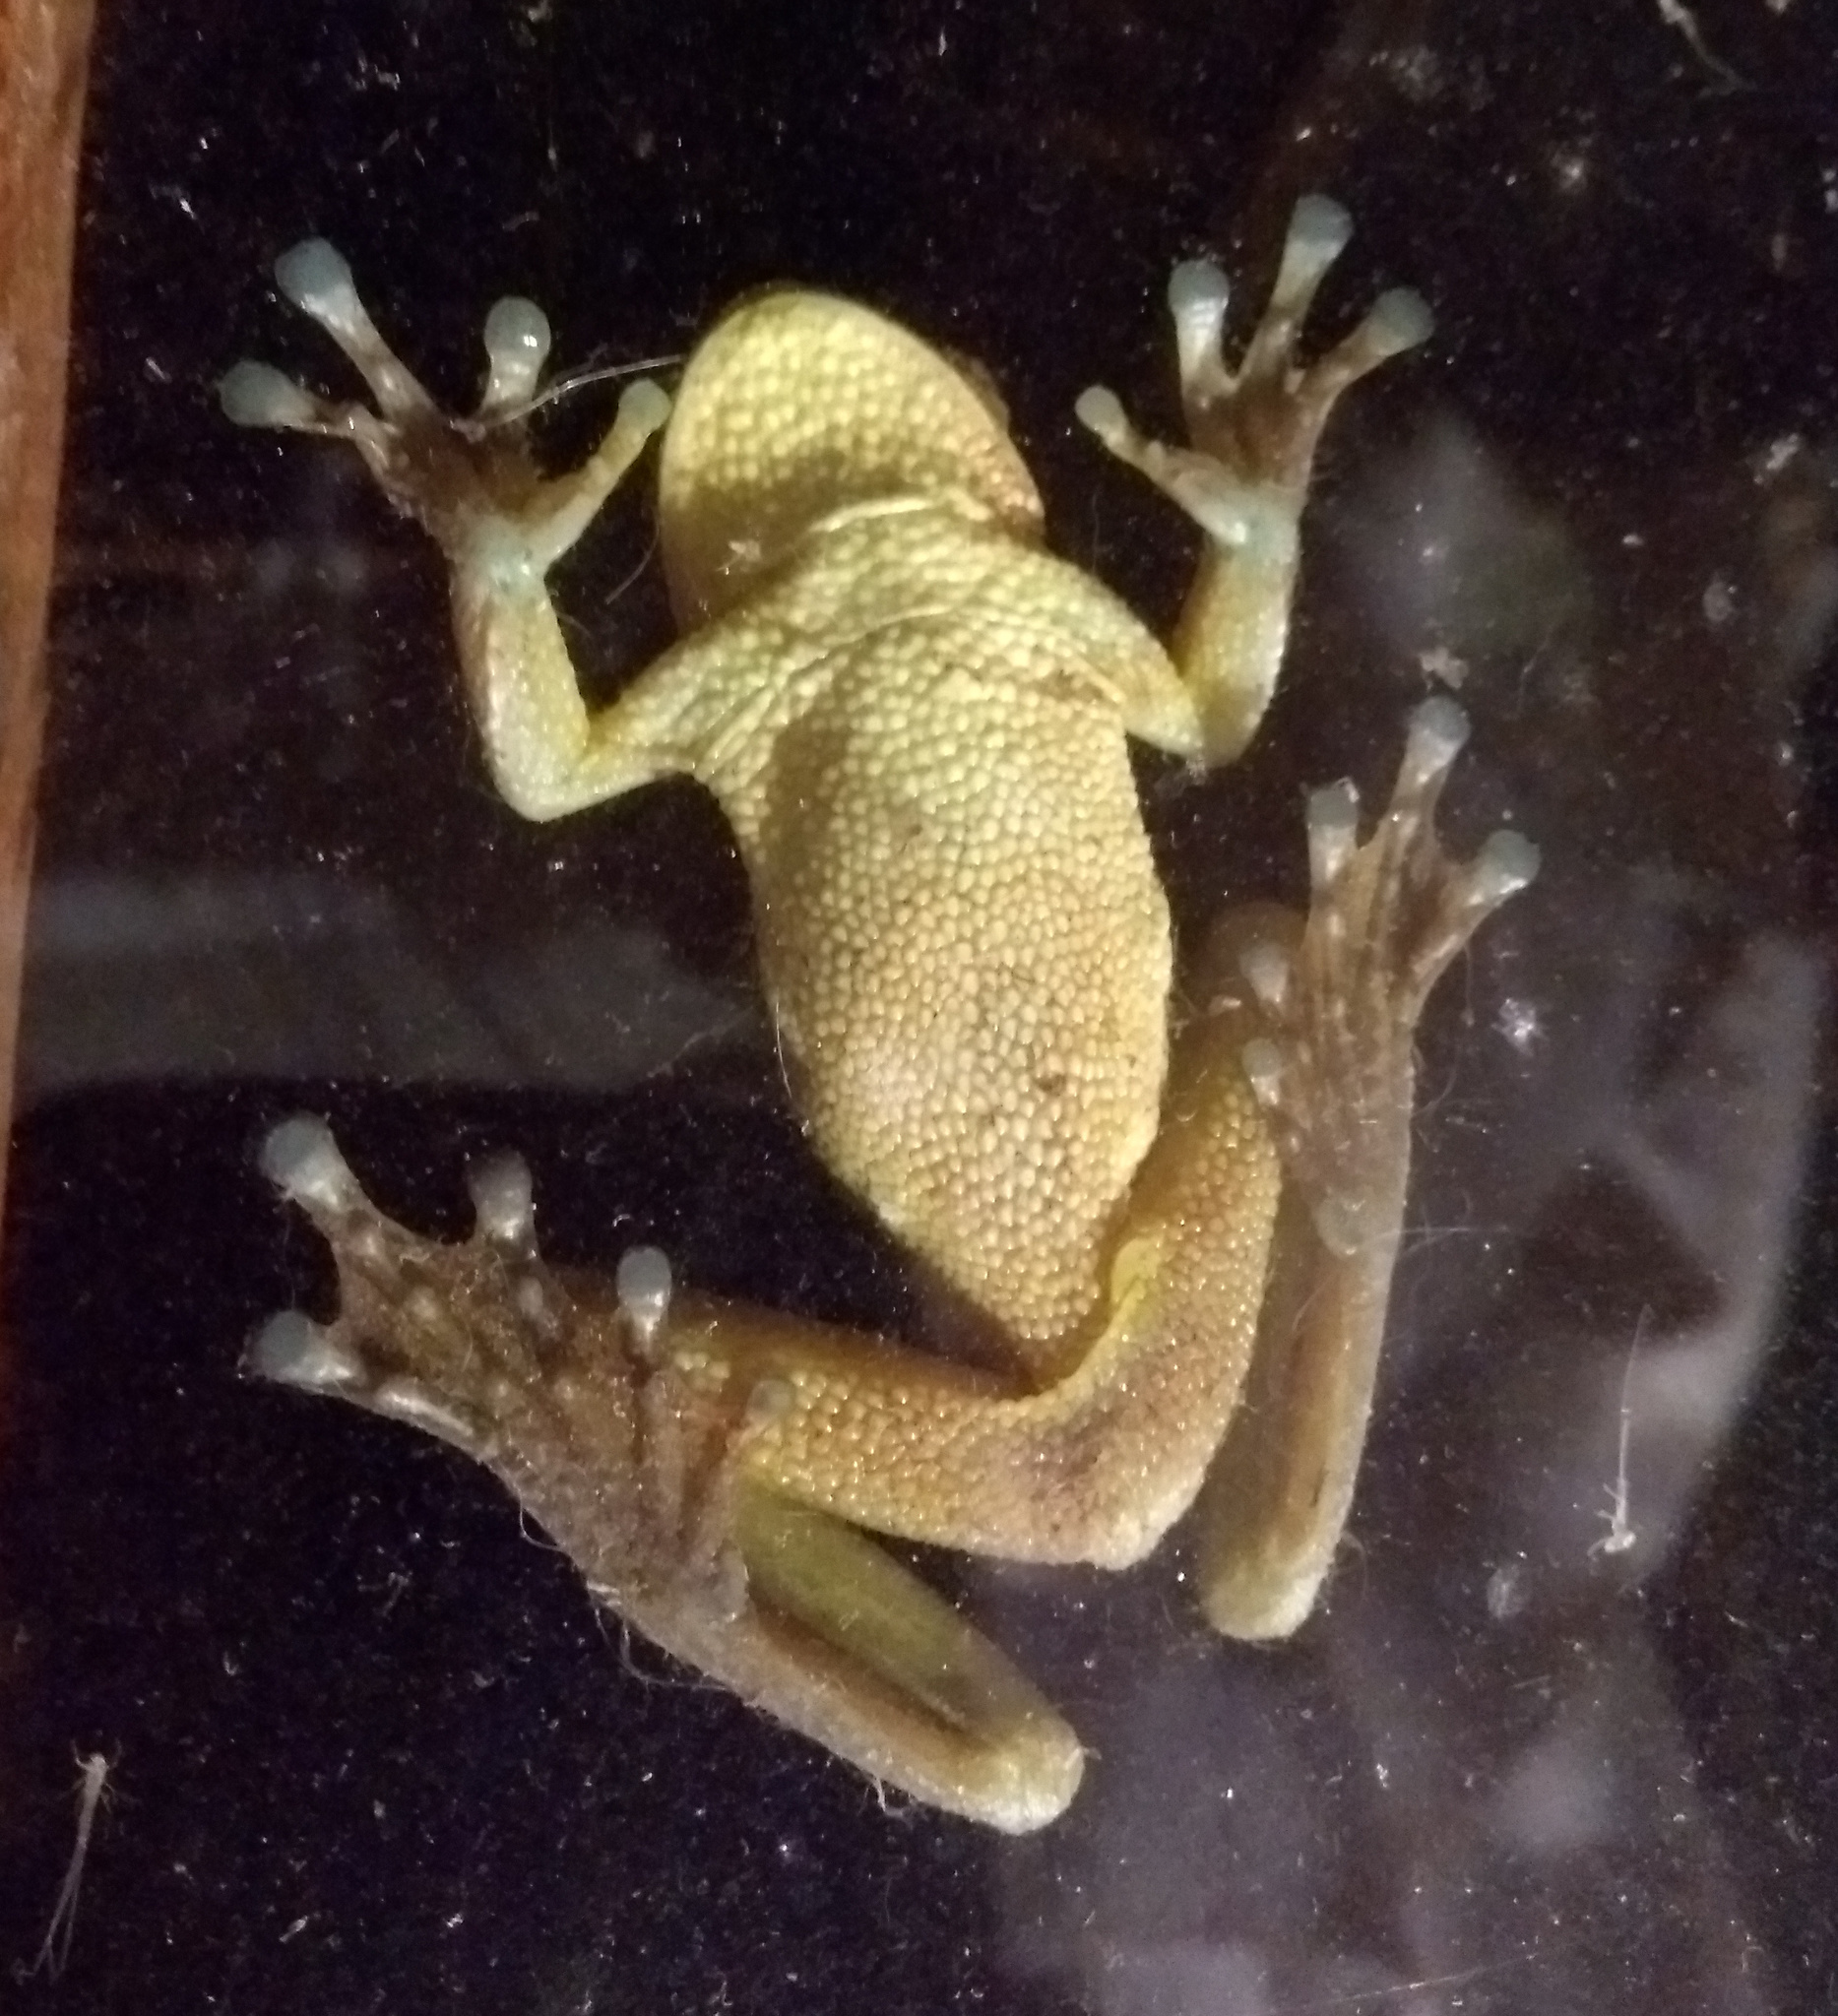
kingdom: Animalia
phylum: Chordata
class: Amphibia
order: Anura
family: Hylidae
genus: Trachycephalus
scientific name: Trachycephalus mesophaeus
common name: Porto alegre golden-eyed treefrog
